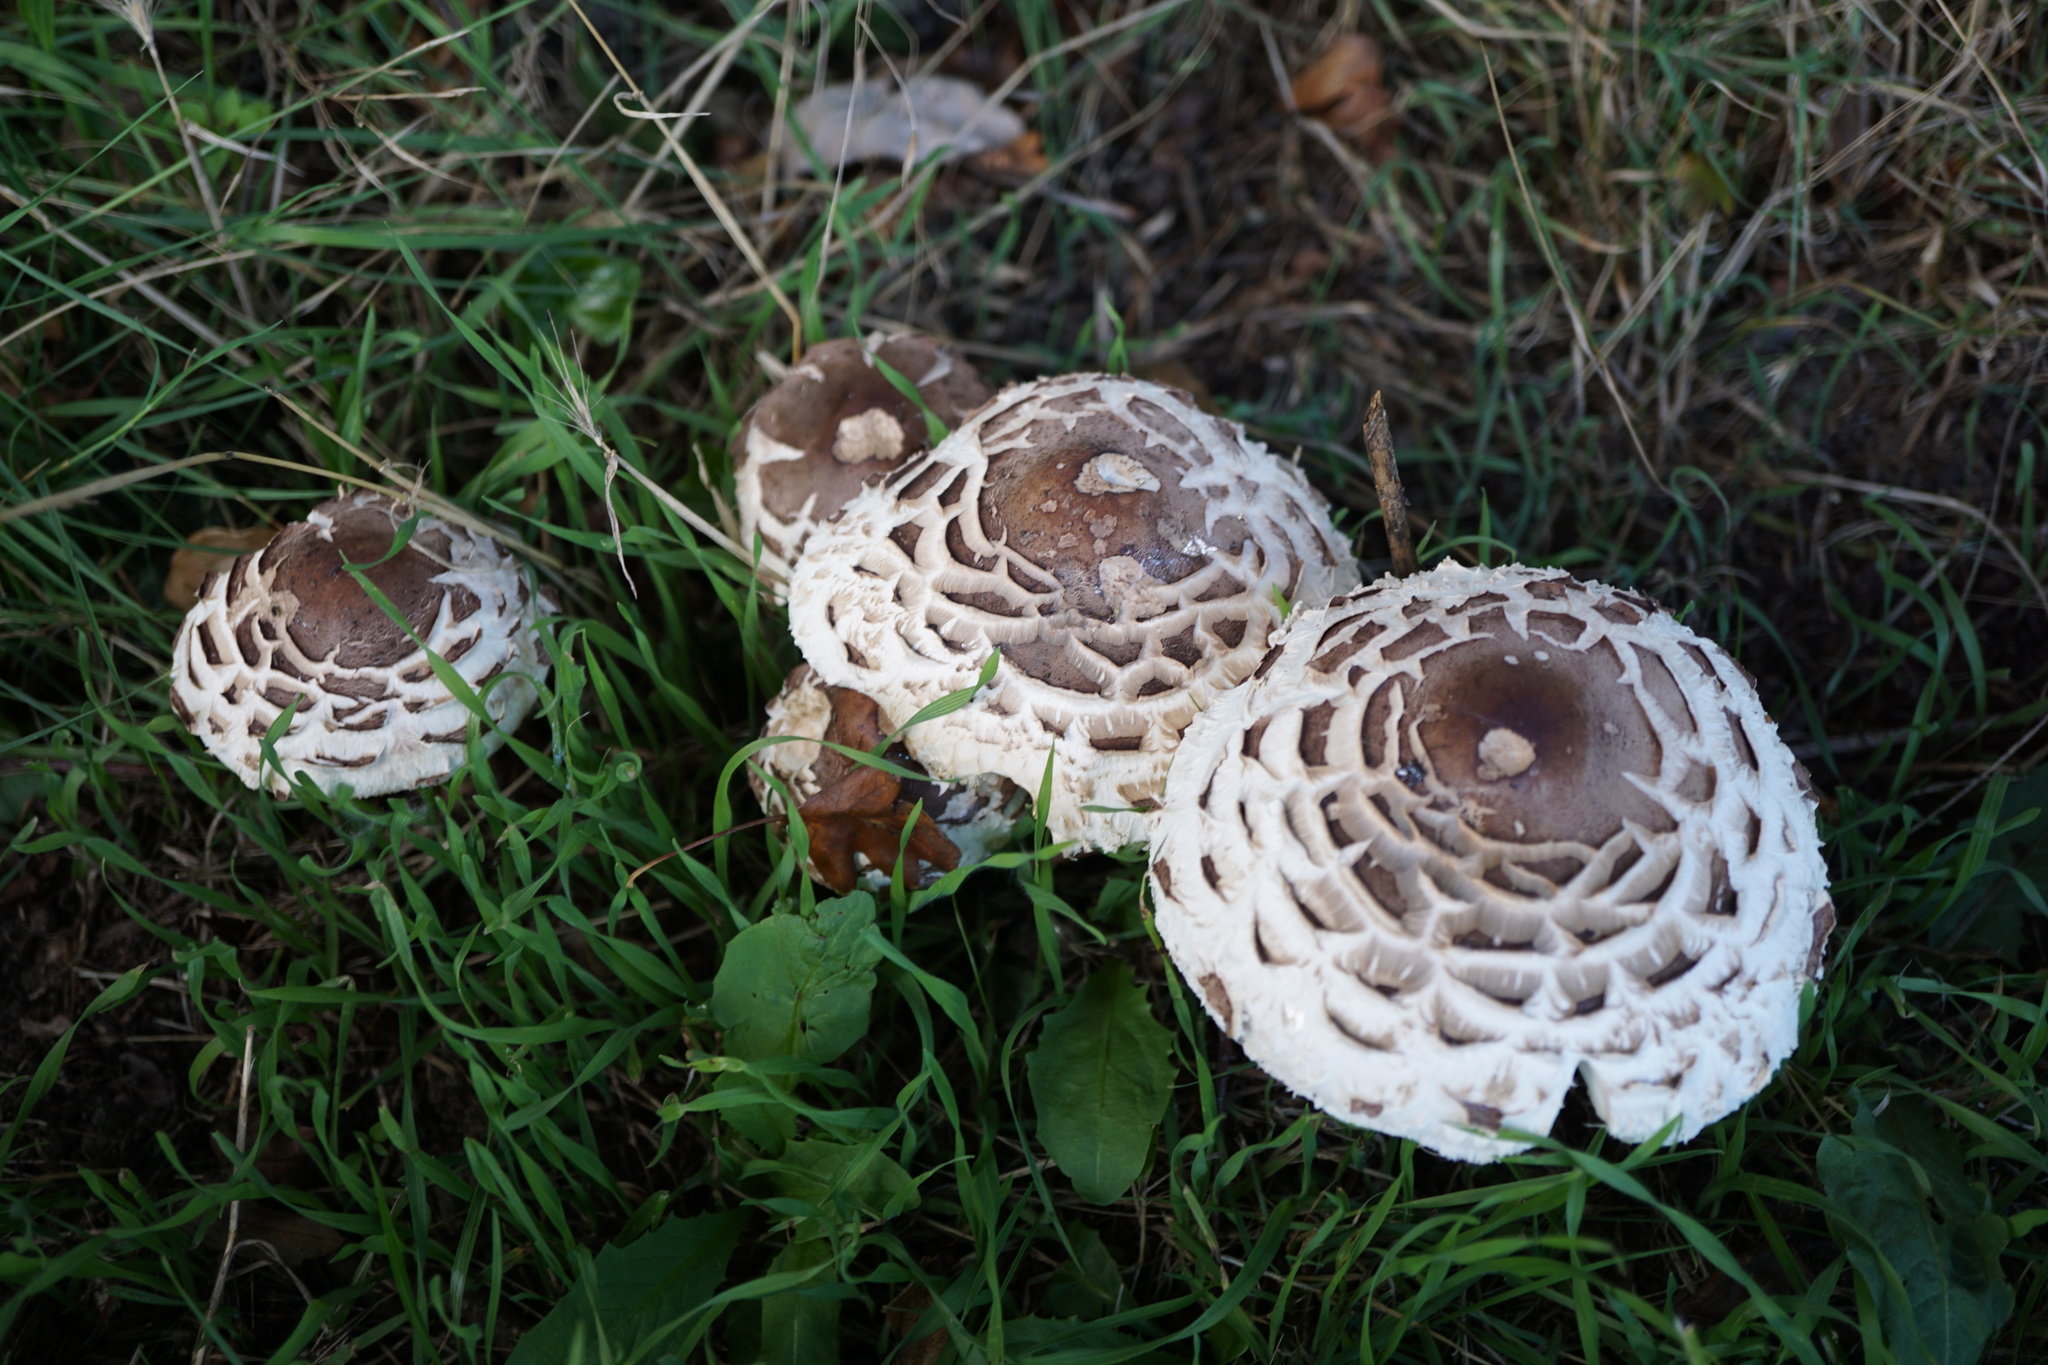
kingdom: Fungi
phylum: Basidiomycota
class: Agaricomycetes
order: Agaricales
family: Agaricaceae
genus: Chlorophyllum
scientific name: Chlorophyllum rhacodes
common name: Shaggy parasol
